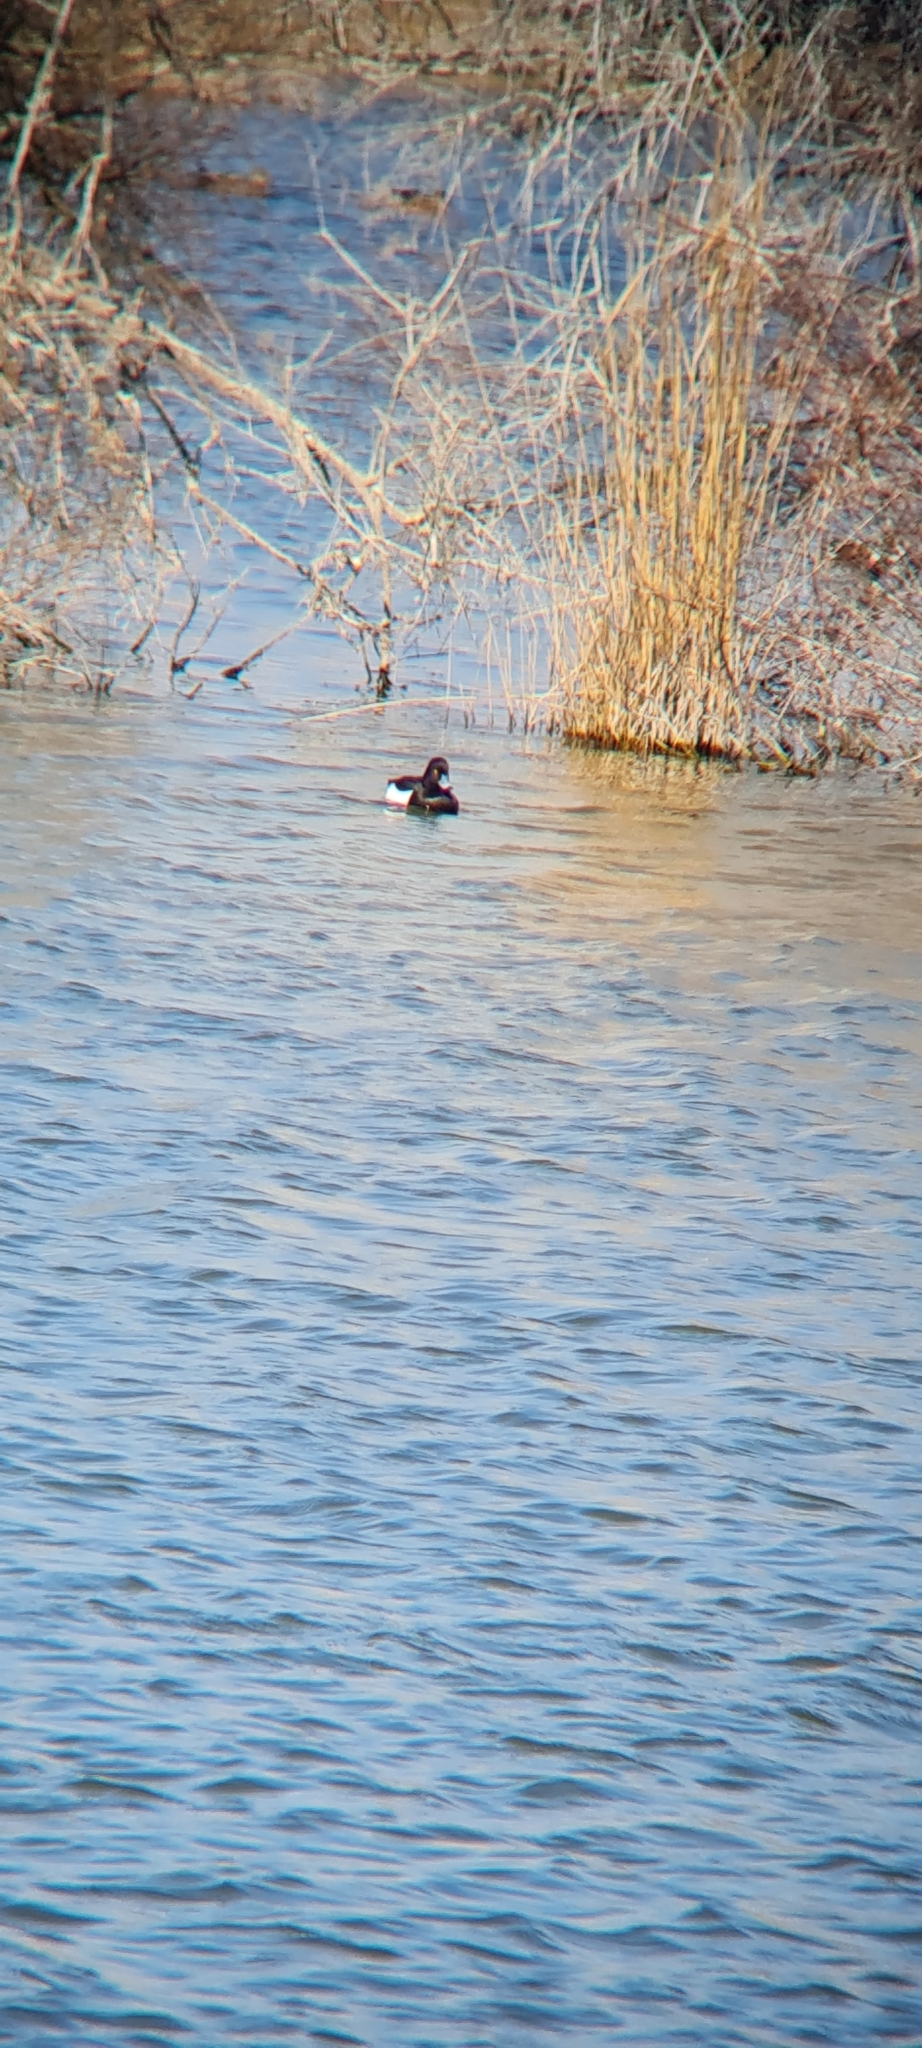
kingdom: Animalia
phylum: Chordata
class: Aves
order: Anseriformes
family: Anatidae
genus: Aythya
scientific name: Aythya fuligula
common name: Tufted duck
